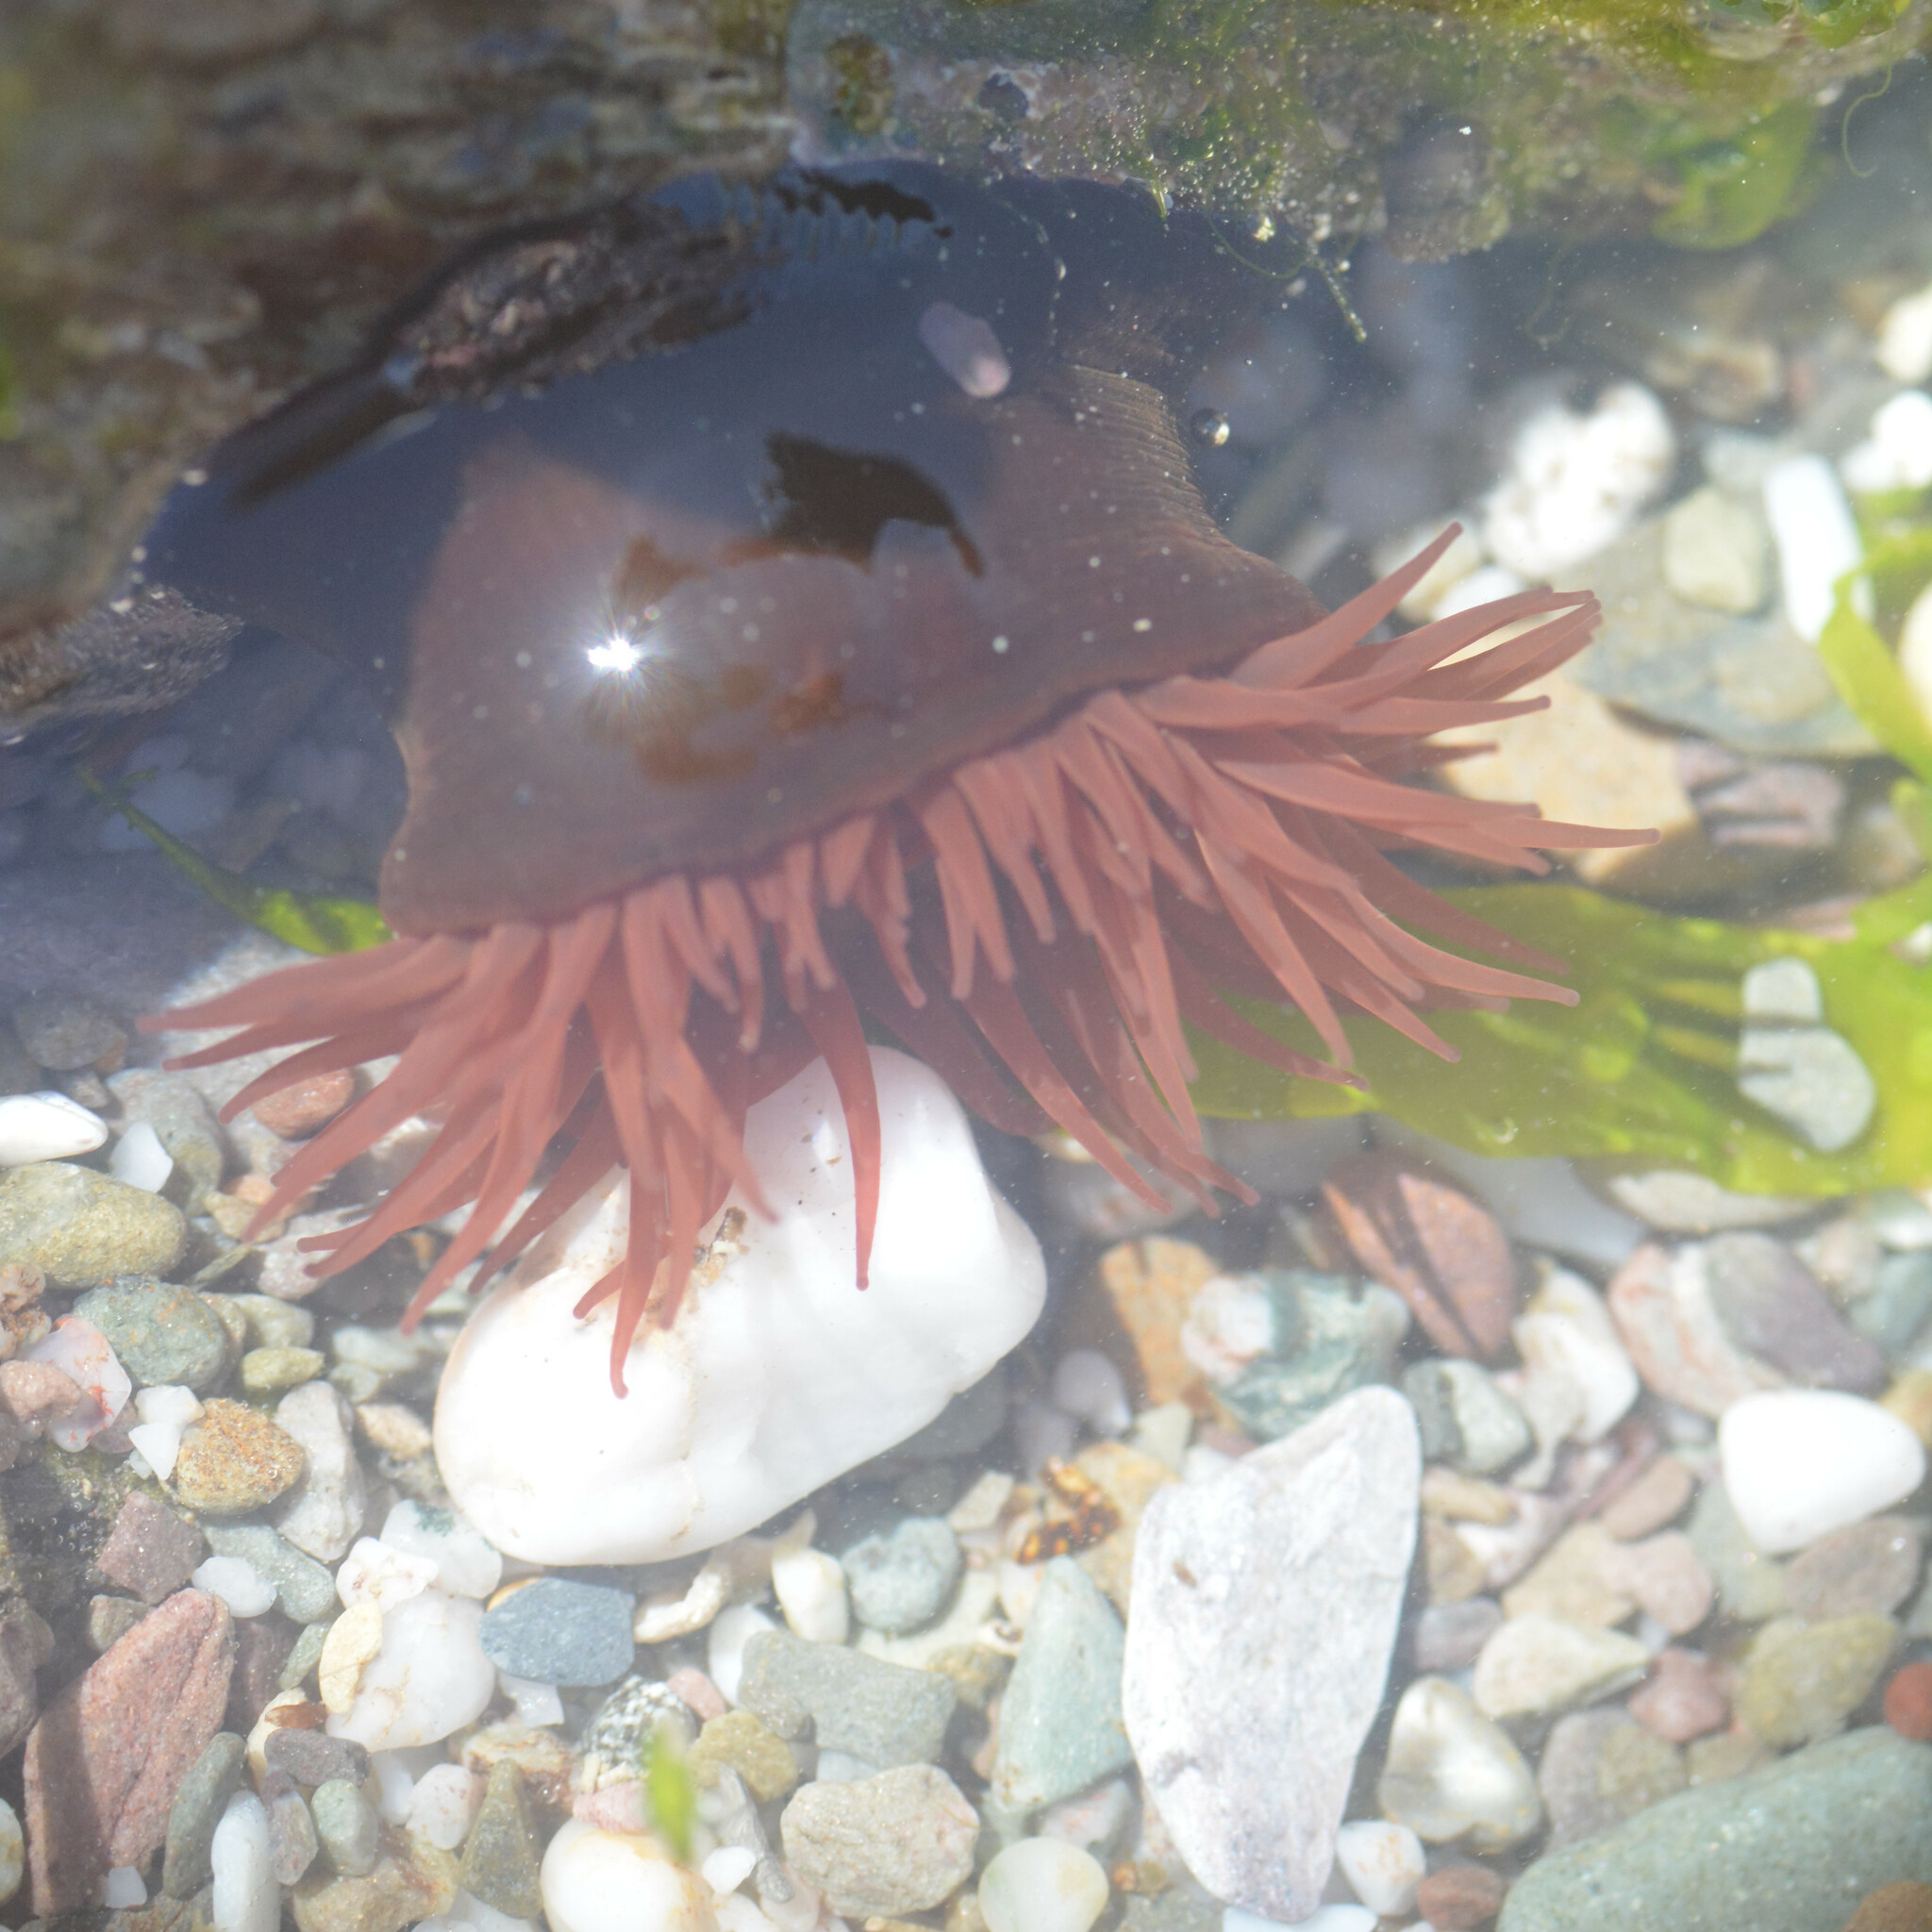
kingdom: Animalia
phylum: Cnidaria
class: Anthozoa
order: Actiniaria
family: Actiniidae
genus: Actinia
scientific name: Actinia equina
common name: Beadlet anemone
